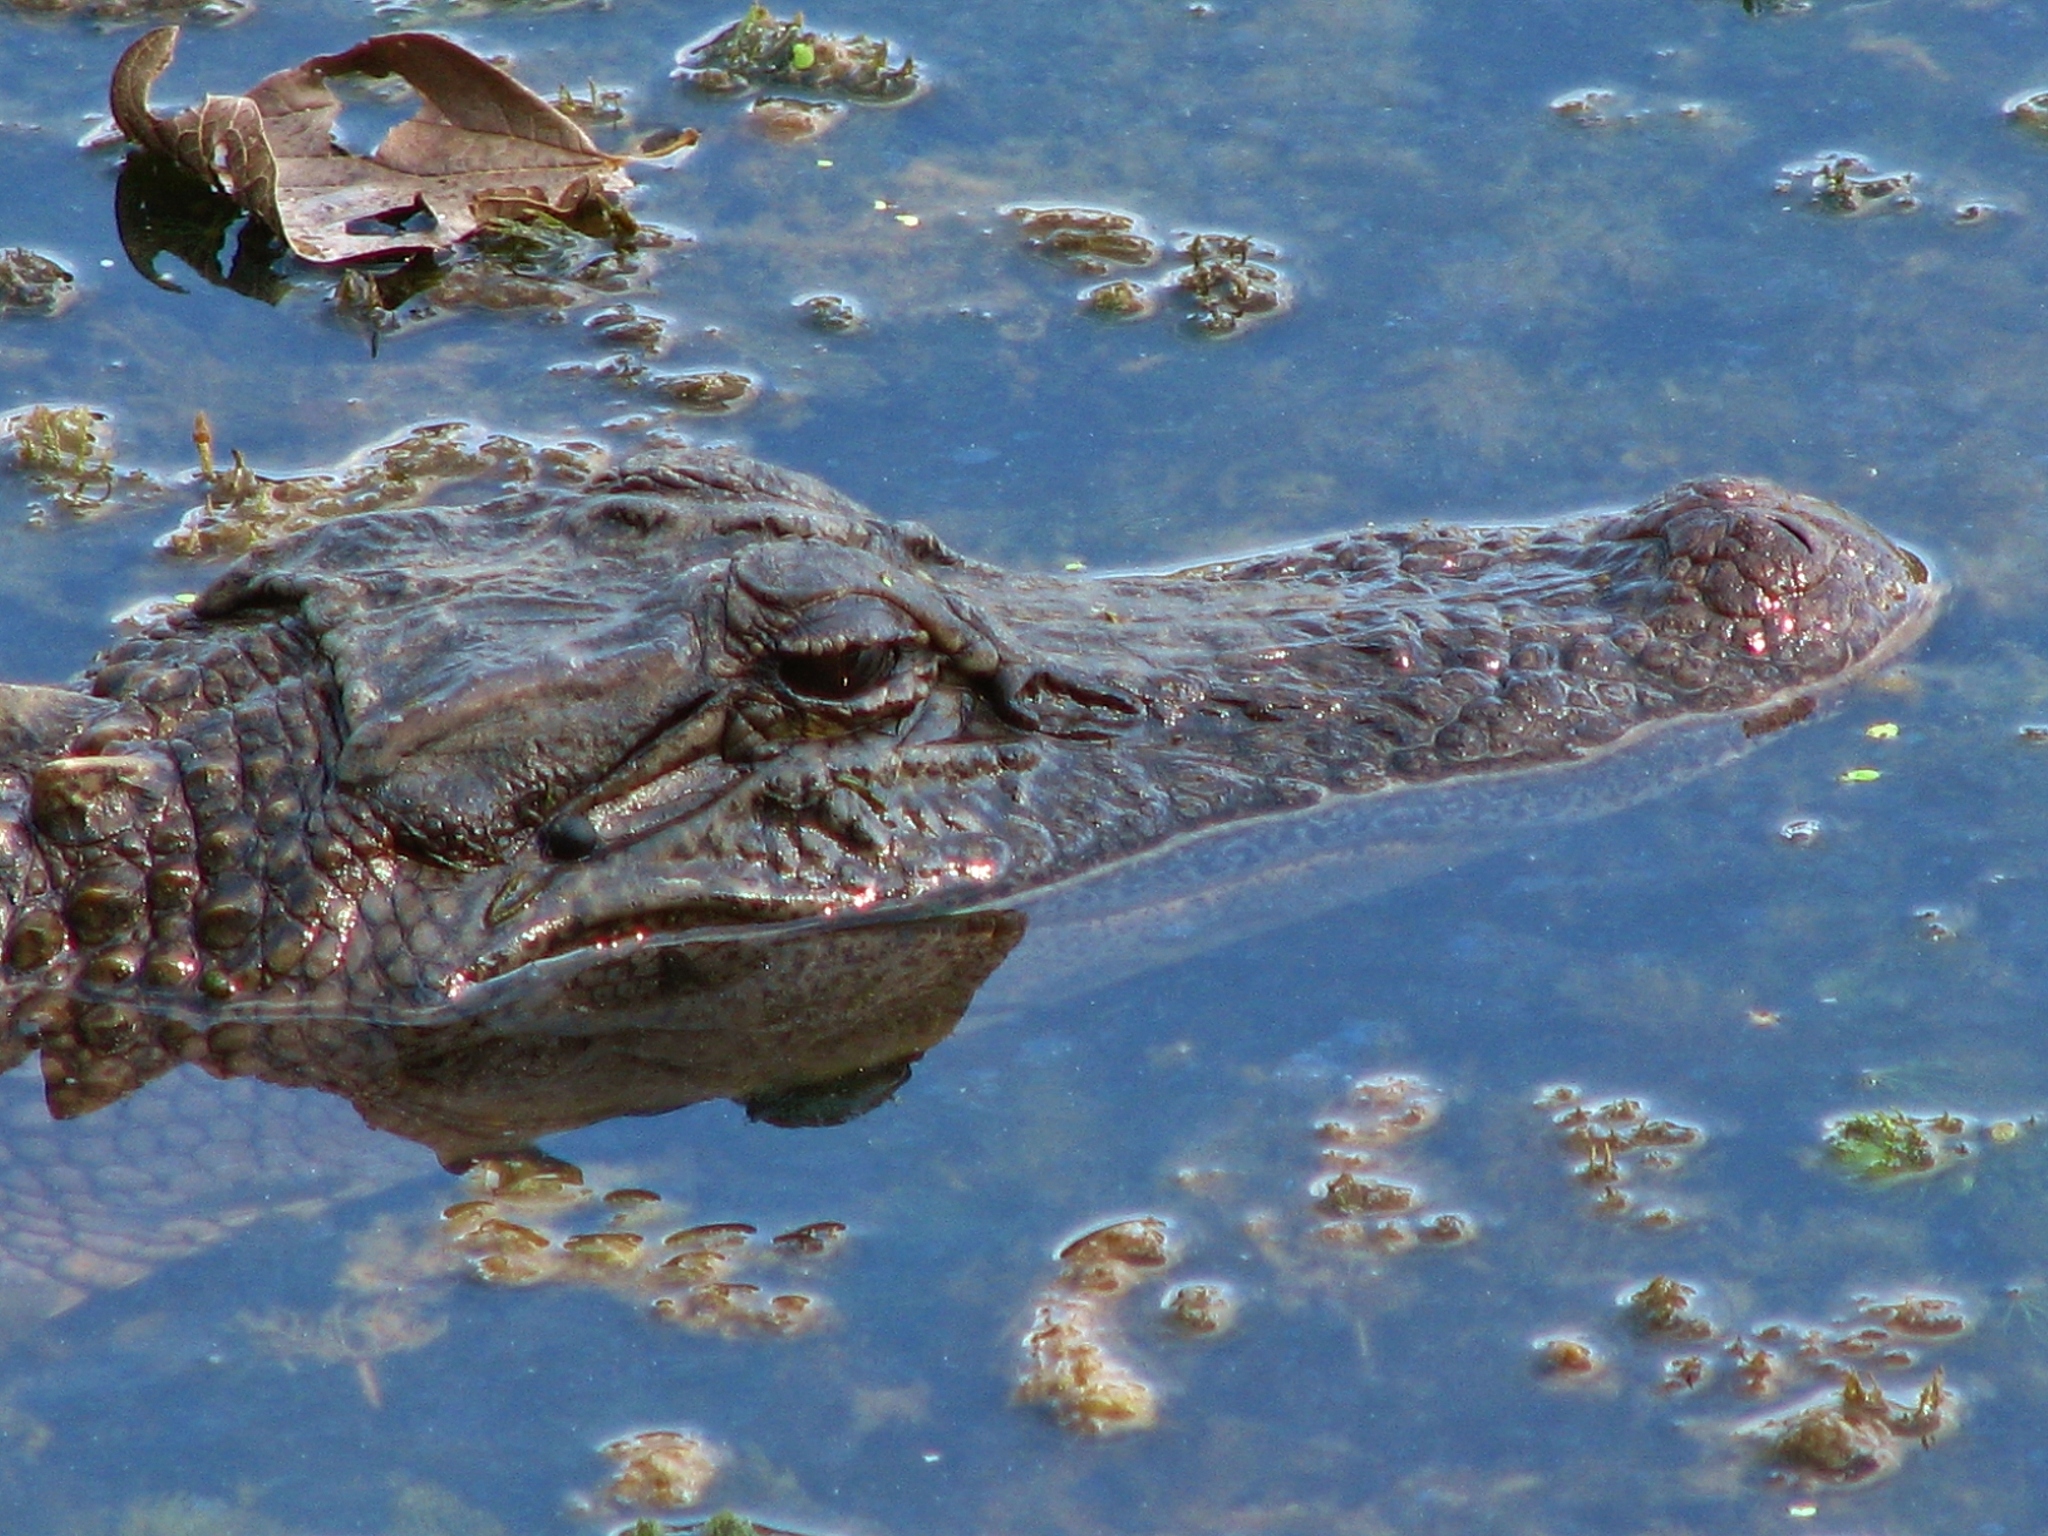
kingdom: Animalia
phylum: Chordata
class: Crocodylia
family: Alligatoridae
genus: Alligator
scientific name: Alligator mississippiensis
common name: American alligator
